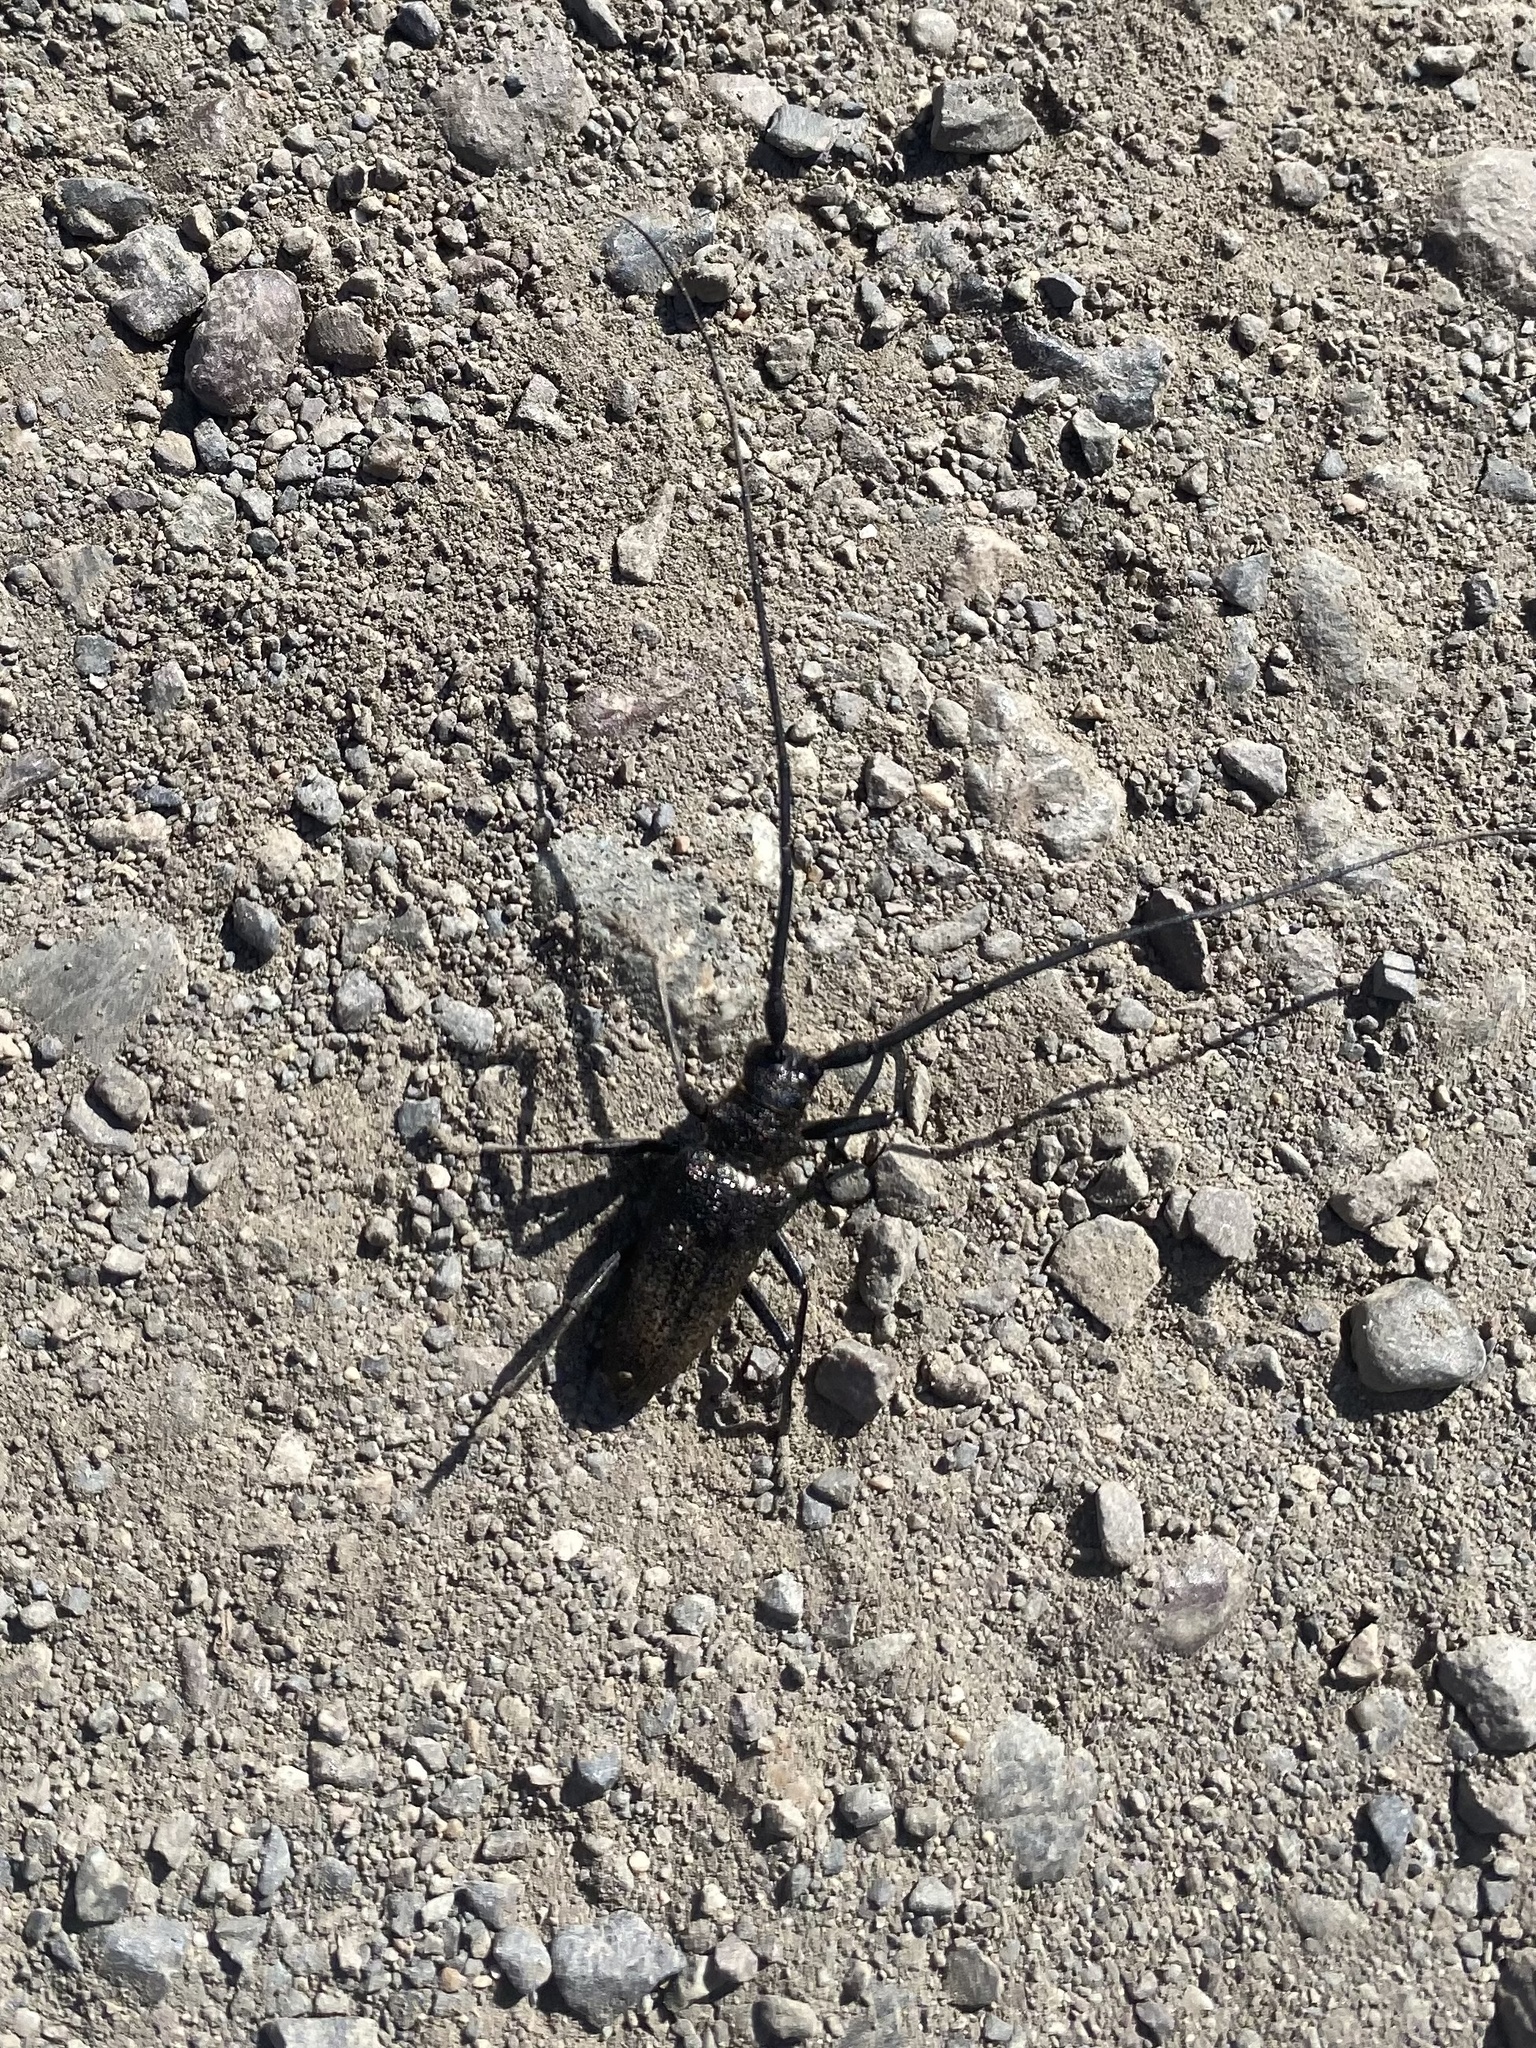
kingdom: Animalia
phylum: Arthropoda
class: Insecta
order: Coleoptera
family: Cerambycidae
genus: Monochamus
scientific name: Monochamus scutellatus
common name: White-spotted sawyer beetle
